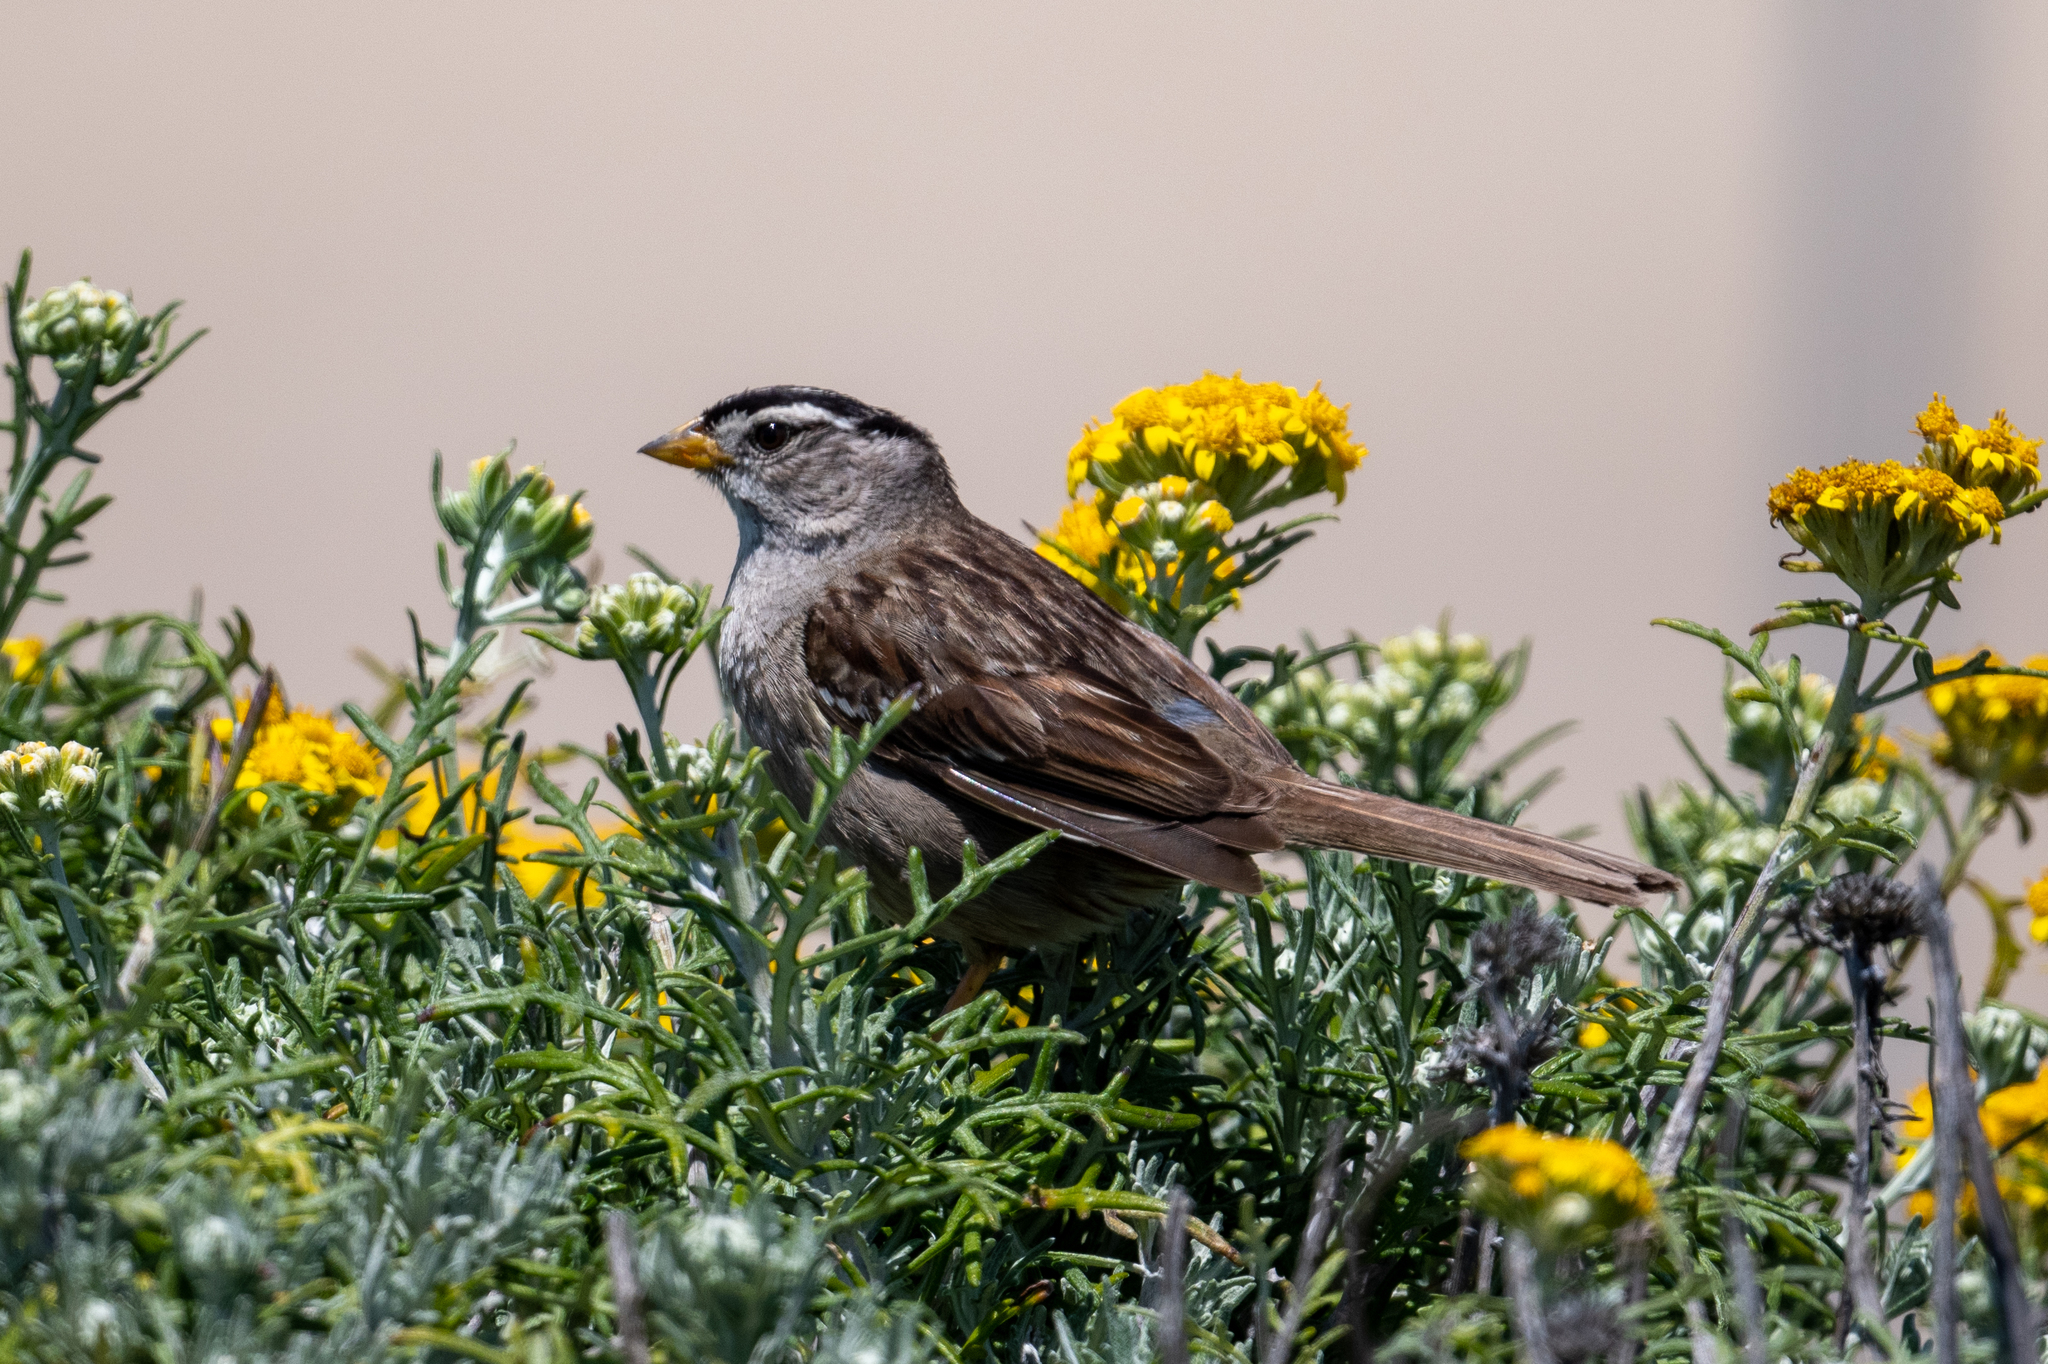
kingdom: Animalia
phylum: Chordata
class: Aves
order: Passeriformes
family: Passerellidae
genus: Zonotrichia
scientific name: Zonotrichia leucophrys
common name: White-crowned sparrow
